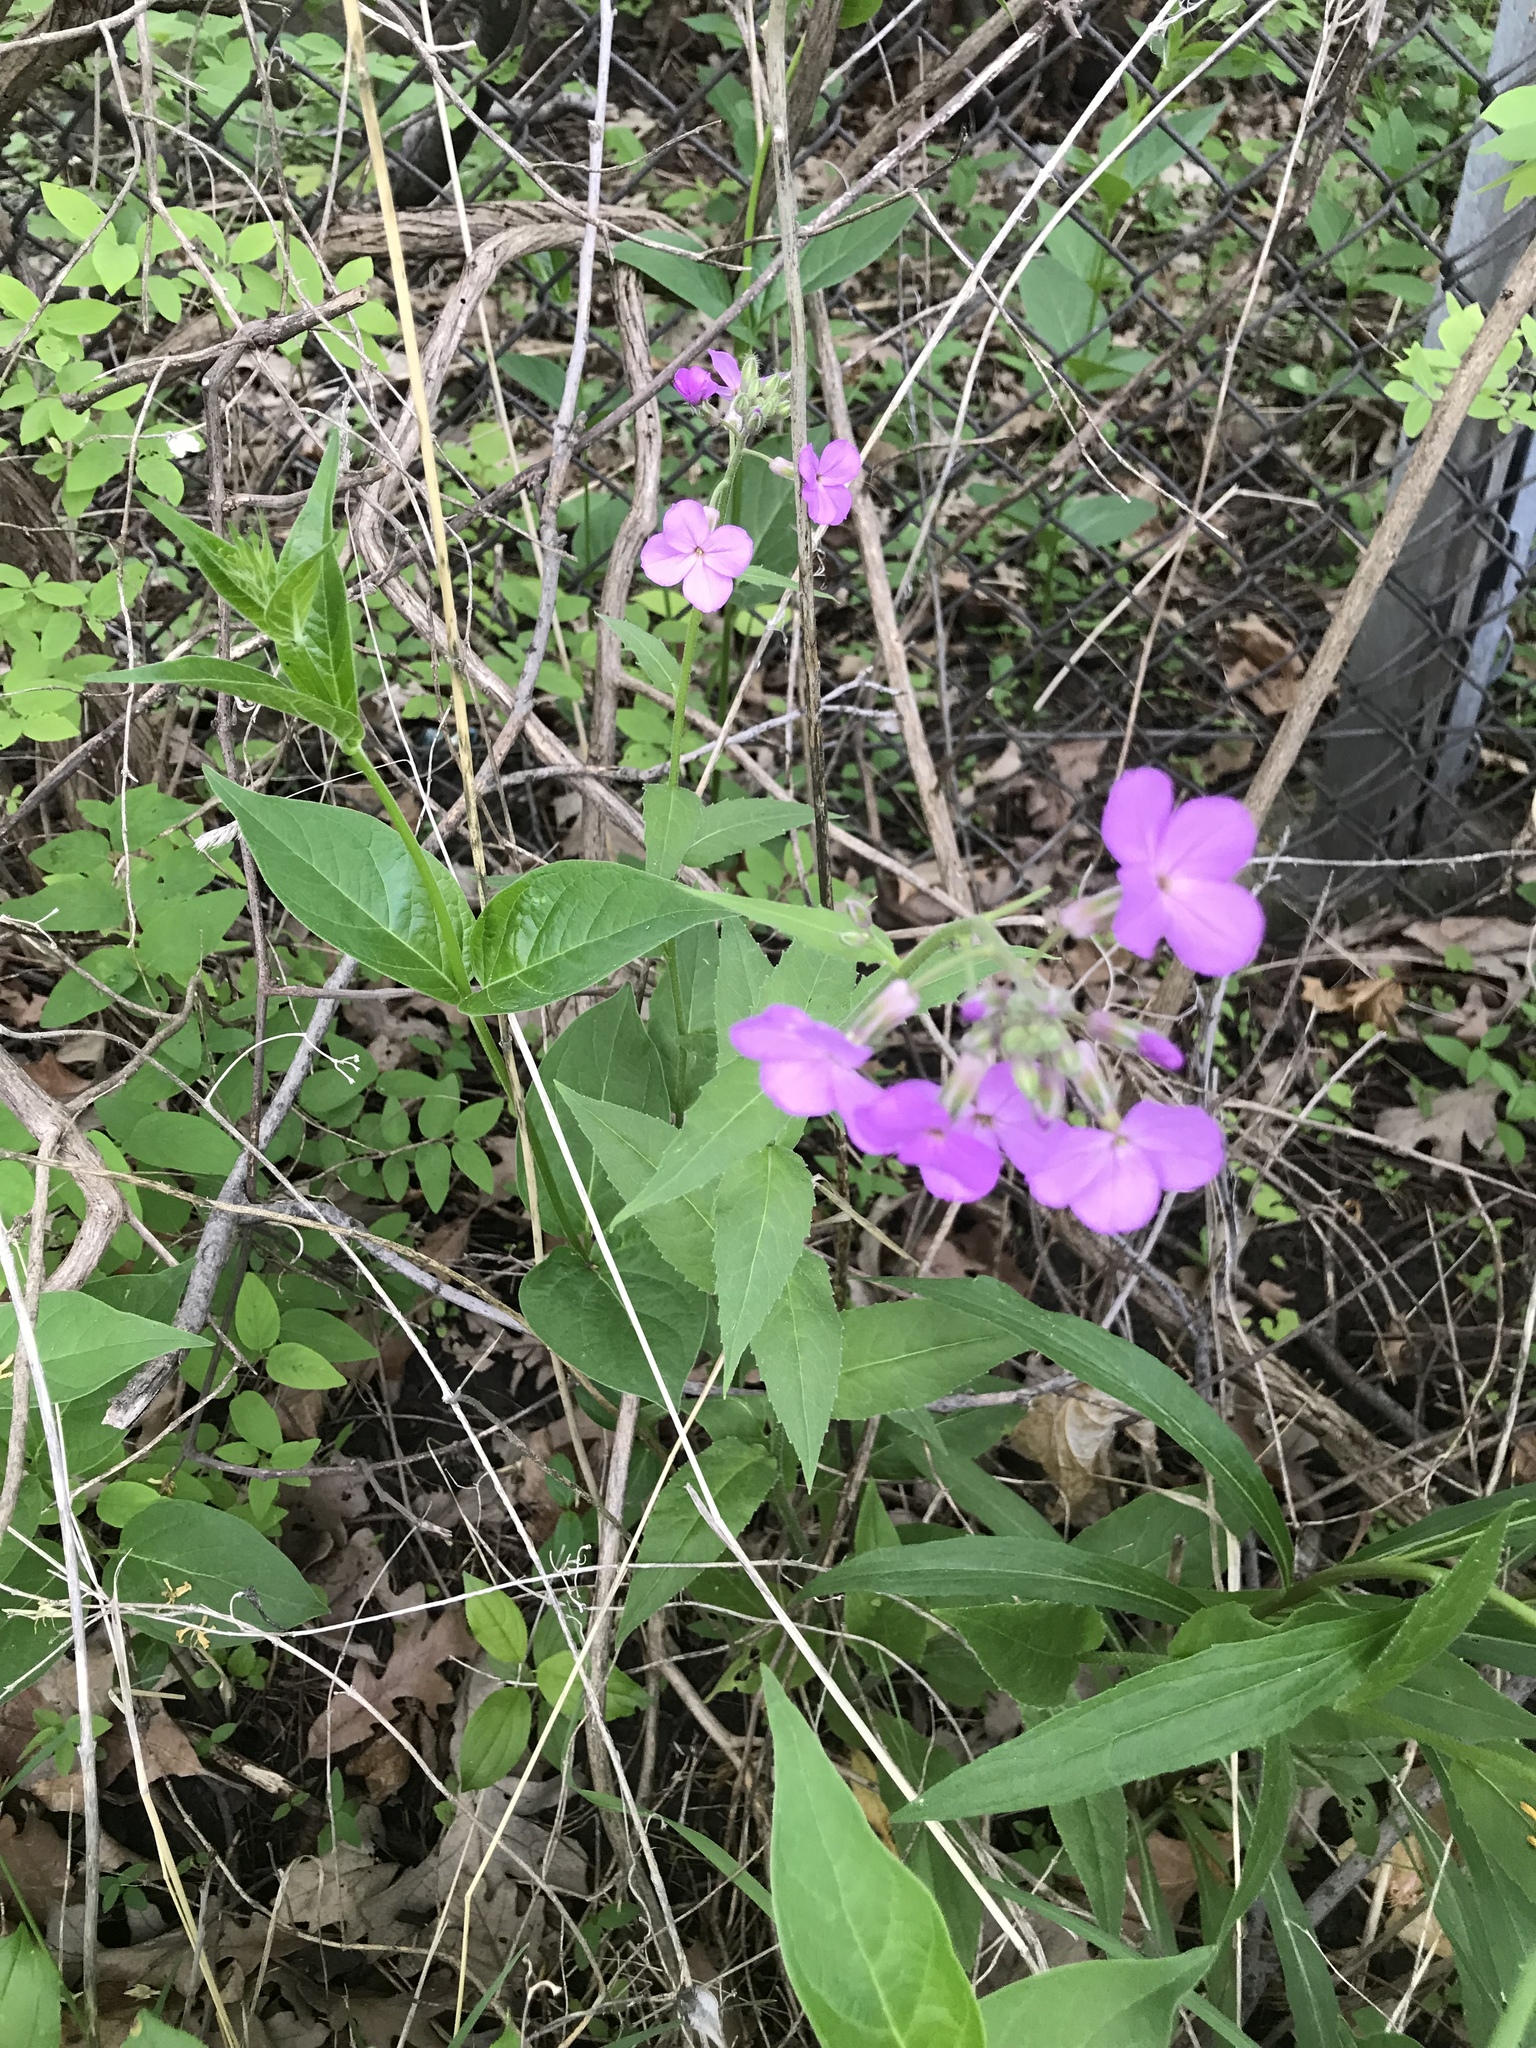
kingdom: Plantae
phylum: Tracheophyta
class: Magnoliopsida
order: Brassicales
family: Brassicaceae
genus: Hesperis
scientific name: Hesperis matronalis
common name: Dame's-violet
